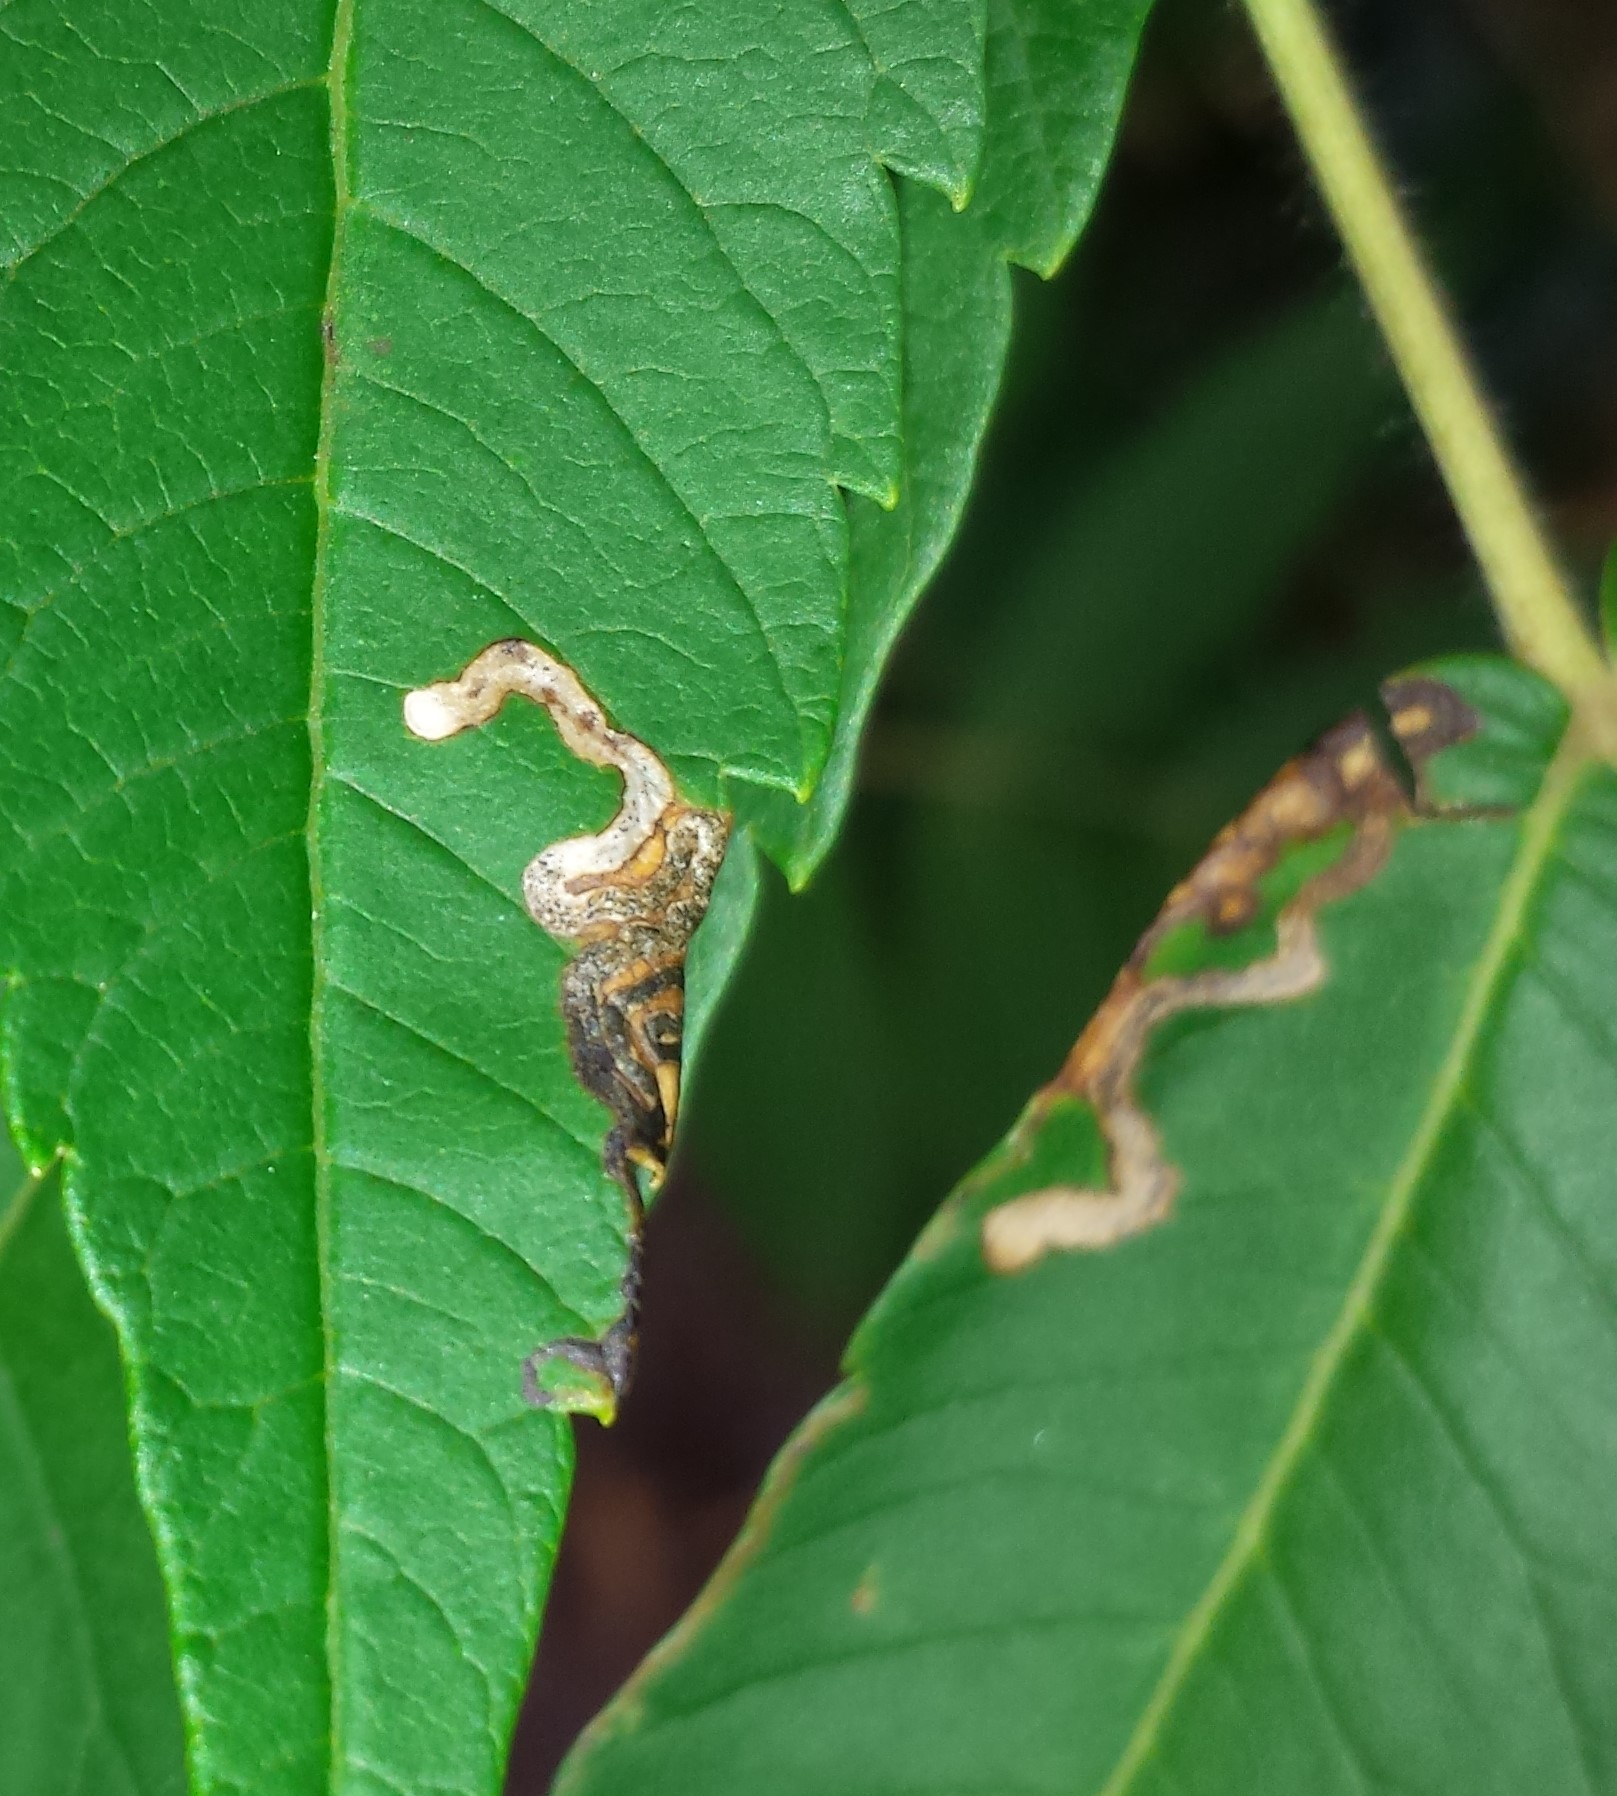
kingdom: Animalia
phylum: Arthropoda
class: Insecta
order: Lepidoptera
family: Nepticulidae
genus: Stigmella
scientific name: Stigmella intermedia
